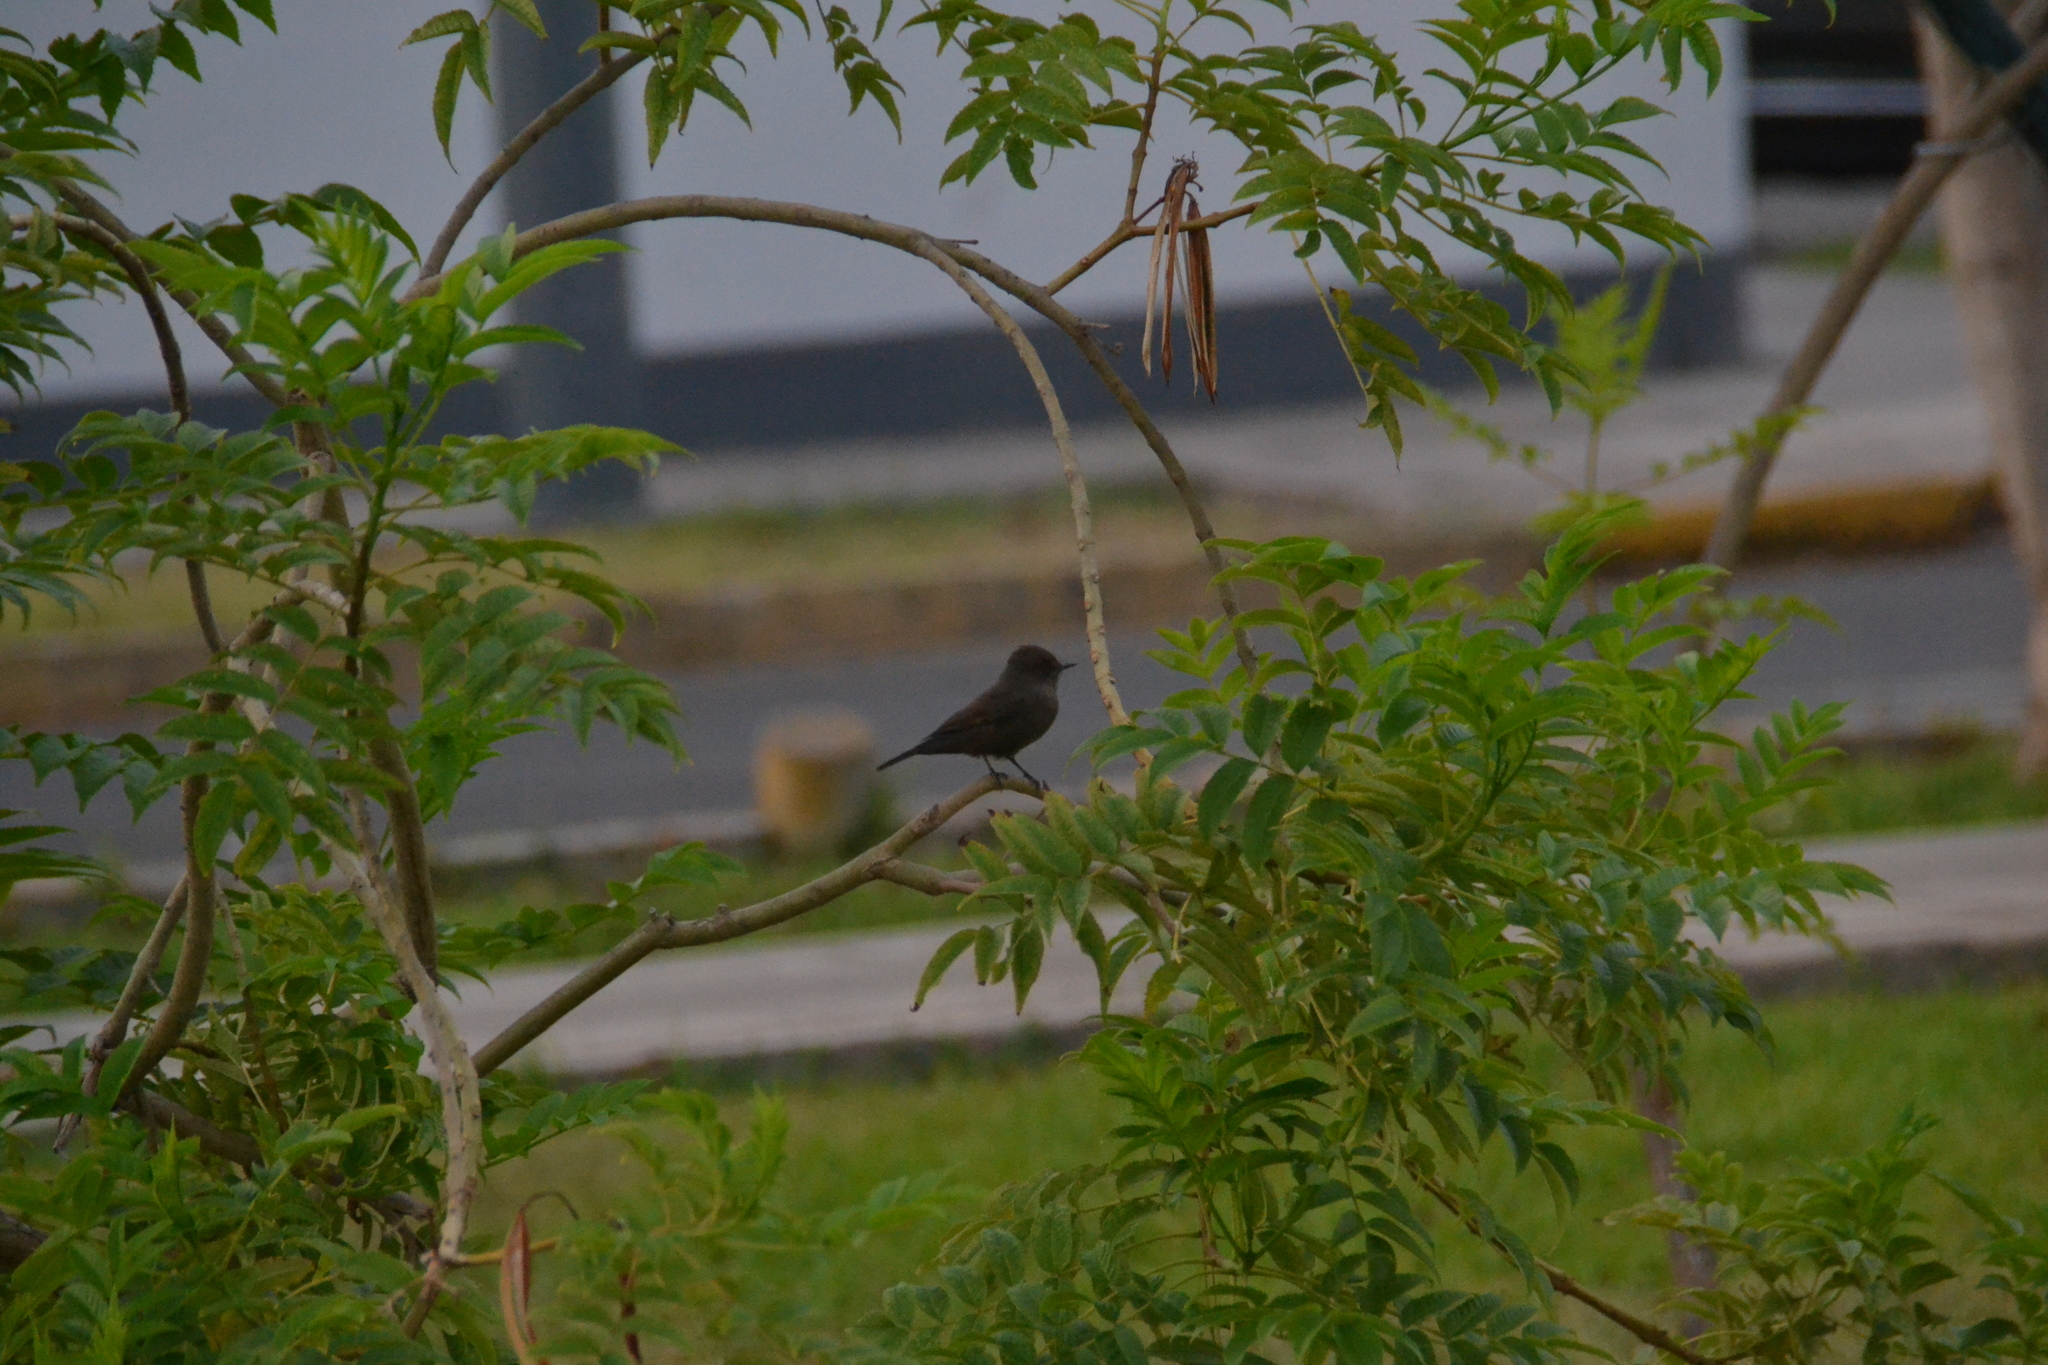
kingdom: Animalia
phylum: Chordata
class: Aves
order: Passeriformes
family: Tyrannidae
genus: Pyrocephalus
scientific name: Pyrocephalus rubinus
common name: Vermilion flycatcher
